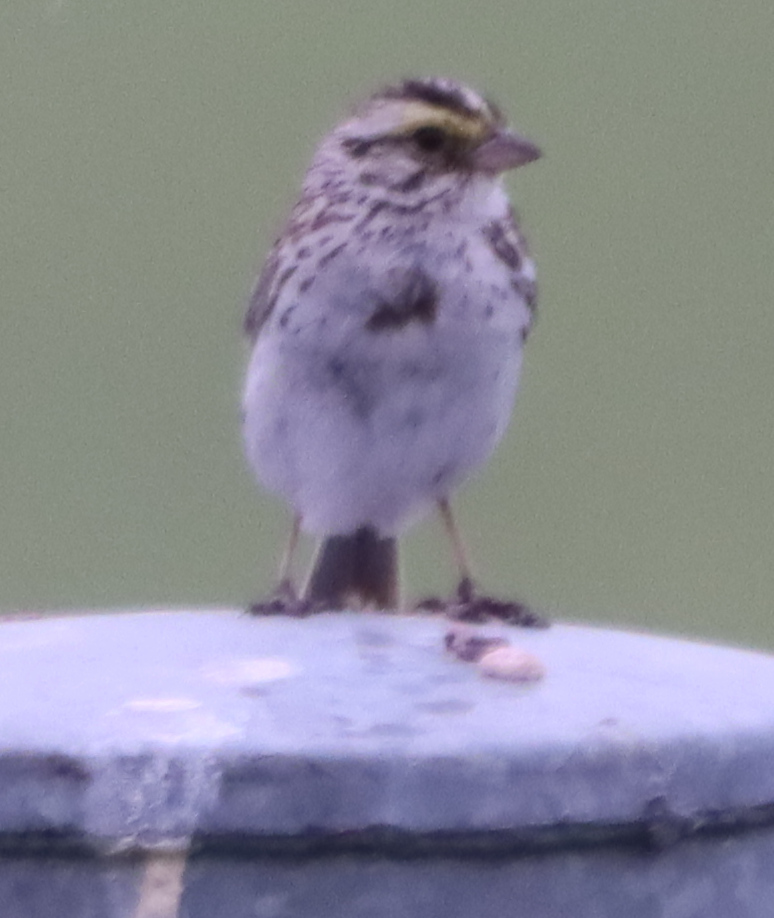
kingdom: Animalia
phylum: Chordata
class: Aves
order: Passeriformes
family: Passerellidae
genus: Passerculus
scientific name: Passerculus sandwichensis
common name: Savannah sparrow
